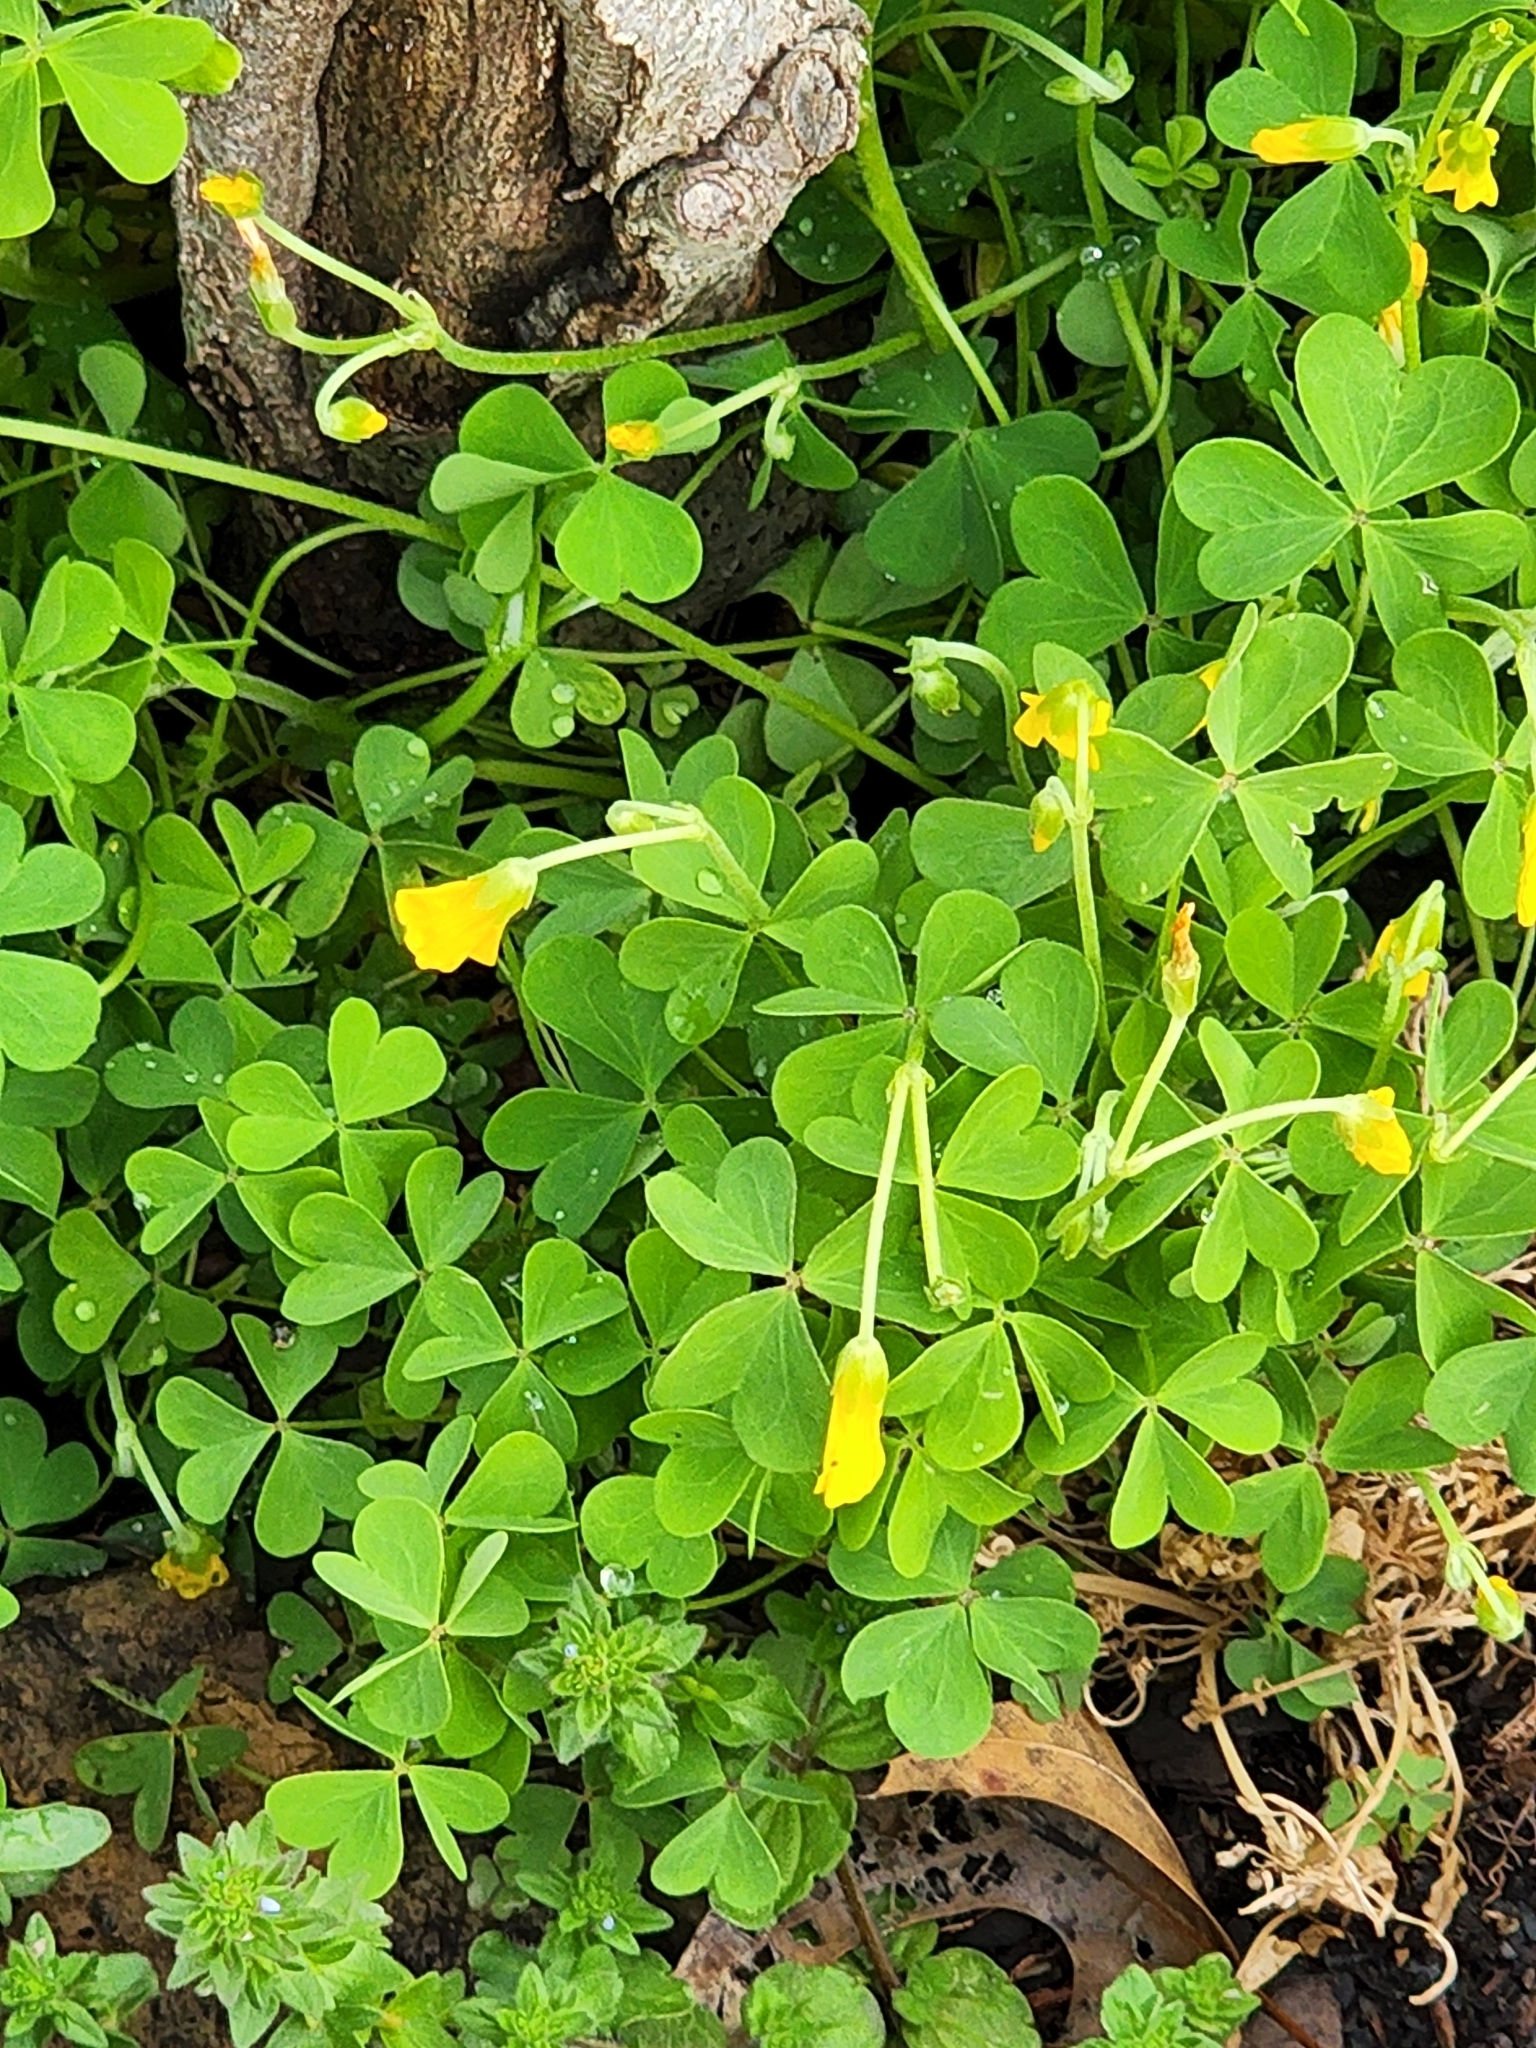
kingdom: Plantae
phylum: Tracheophyta
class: Magnoliopsida
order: Oxalidales
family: Oxalidaceae
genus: Oxalis
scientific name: Oxalis dillenii
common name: Sussex yellow-sorrel
